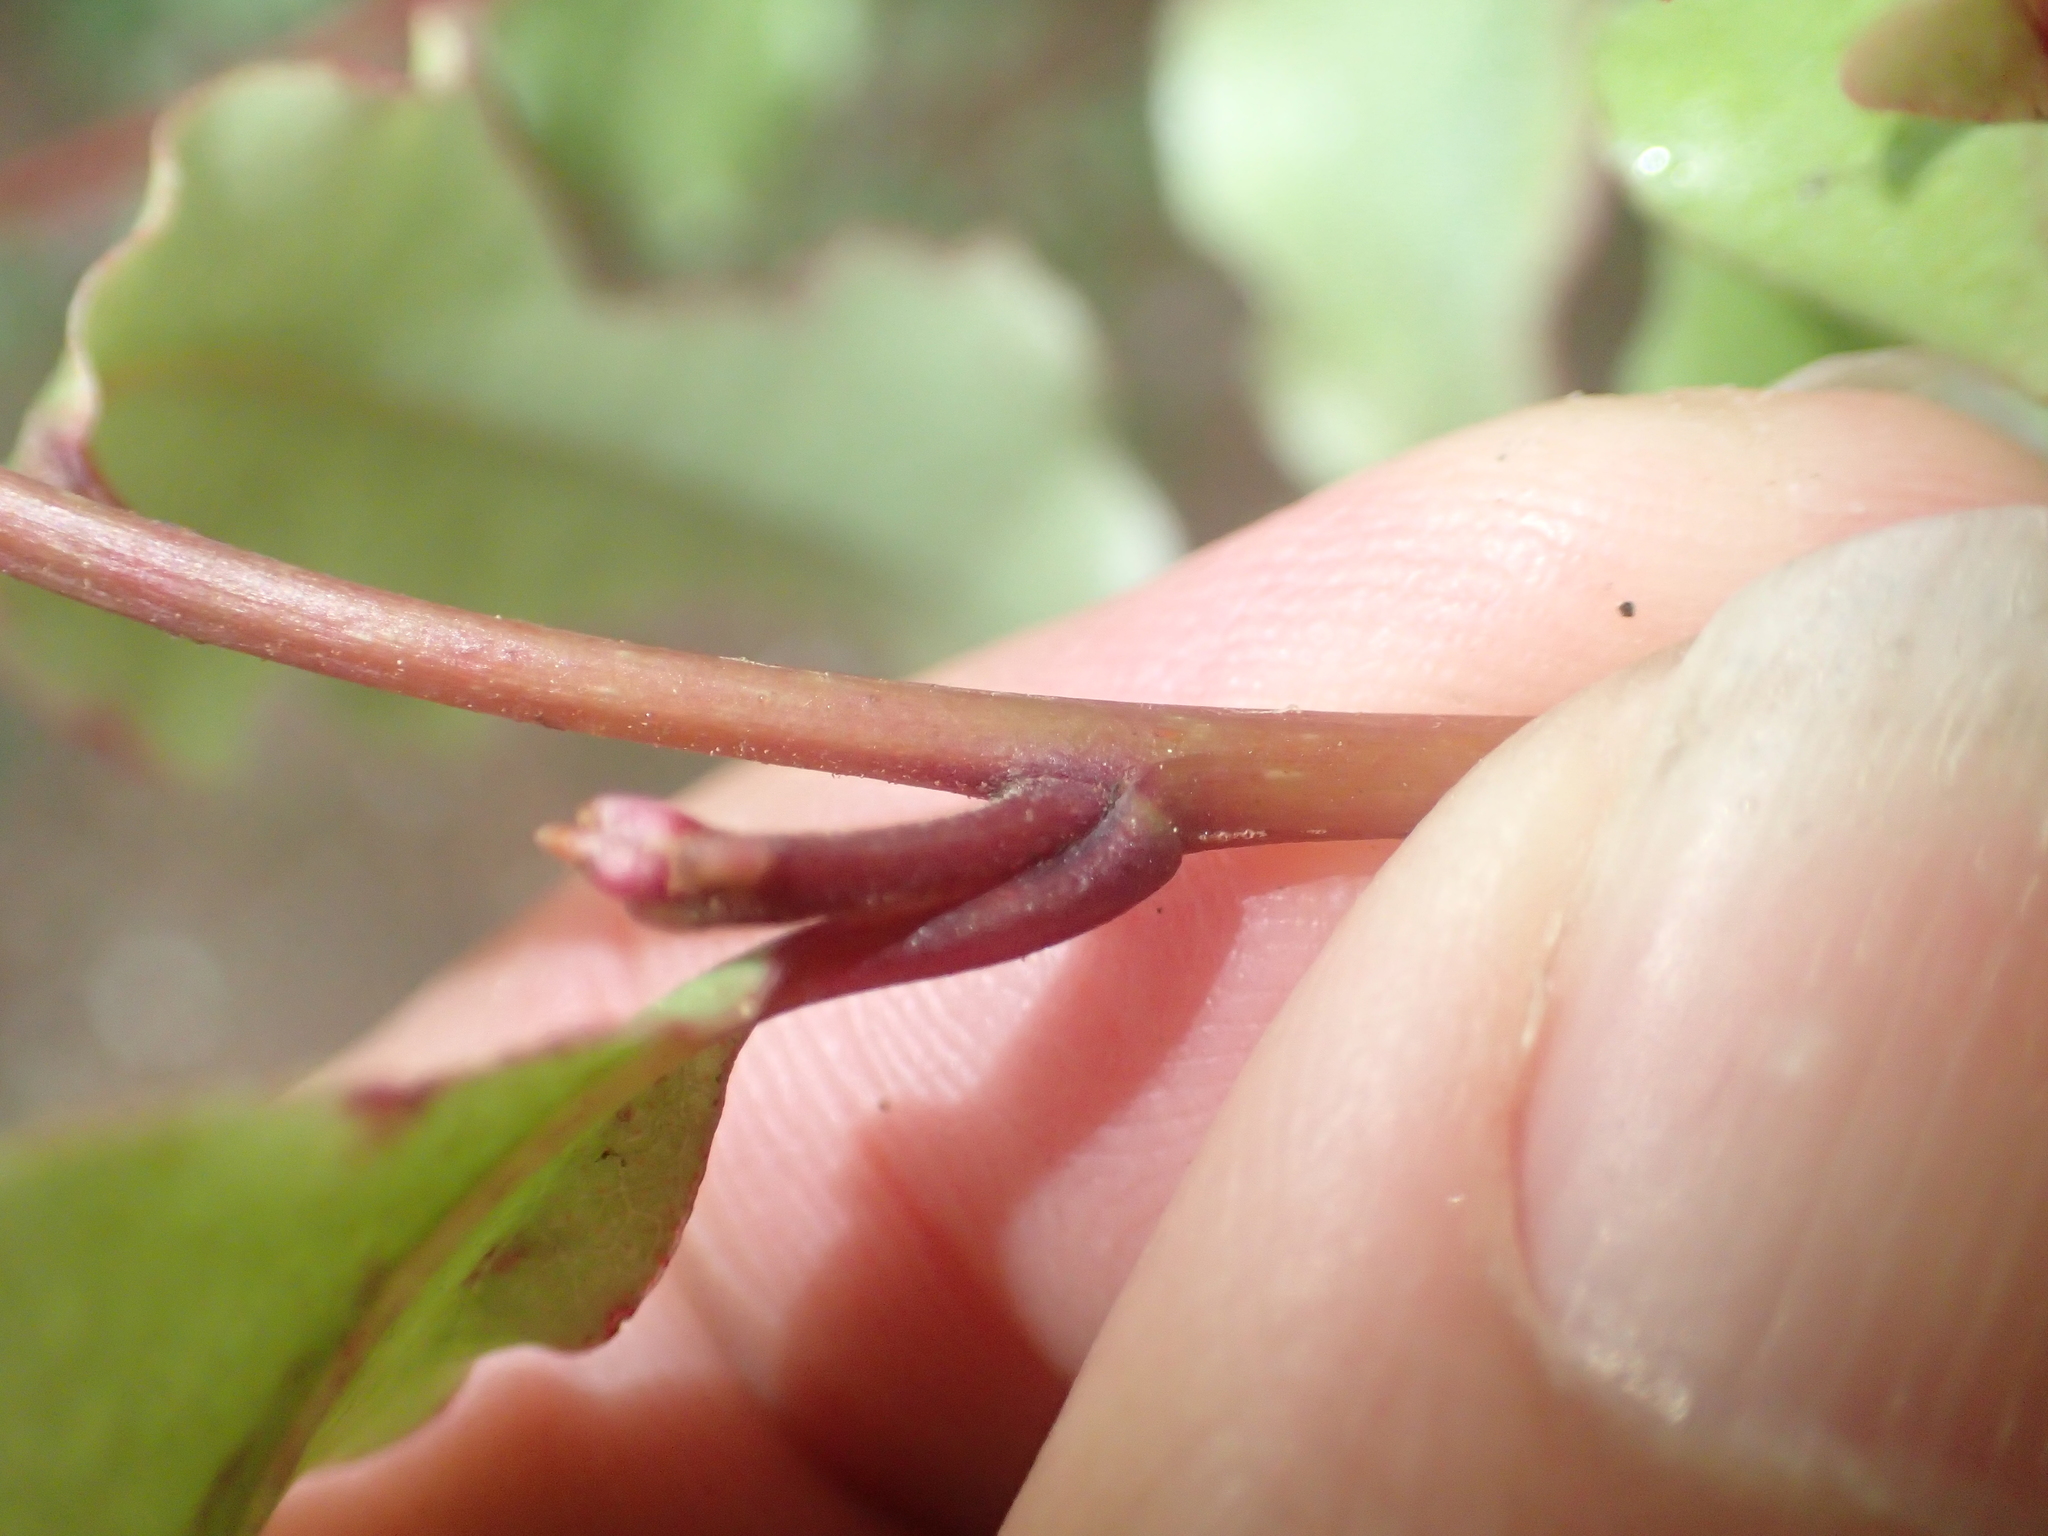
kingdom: Plantae
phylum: Tracheophyta
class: Magnoliopsida
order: Ericales
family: Primulaceae
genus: Myrsine
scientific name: Myrsine australis
